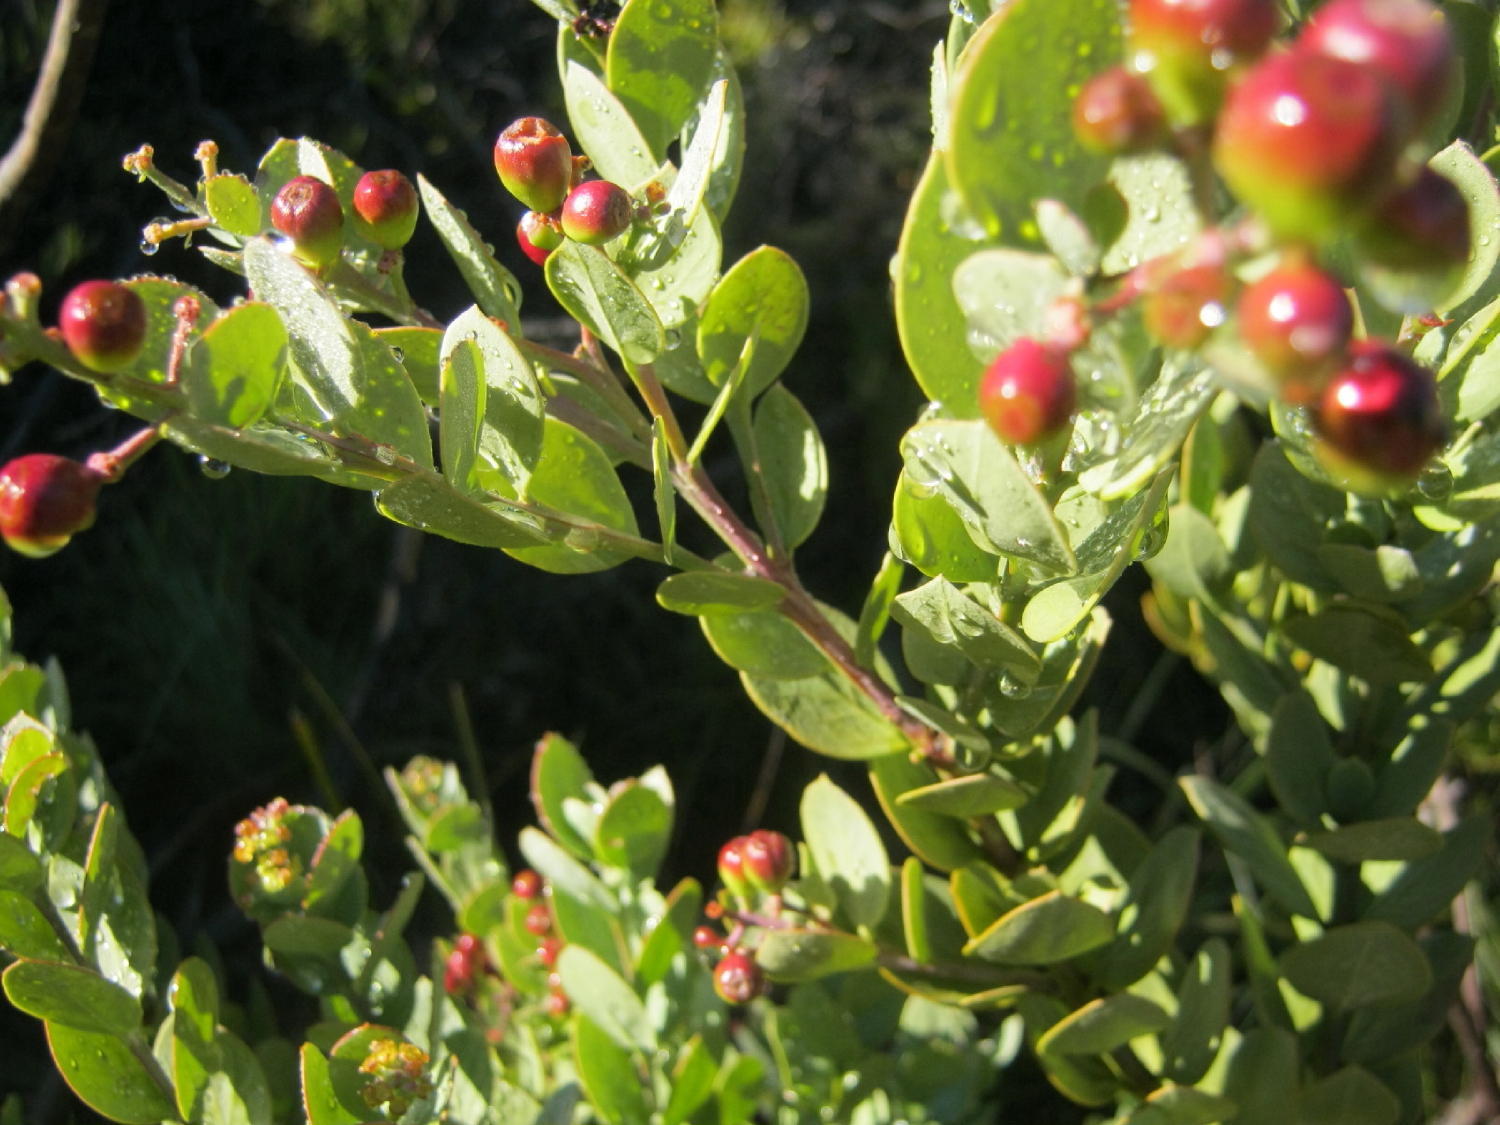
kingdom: Plantae
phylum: Tracheophyta
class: Magnoliopsida
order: Santalales
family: Santalaceae
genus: Osyris
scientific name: Osyris compressa
